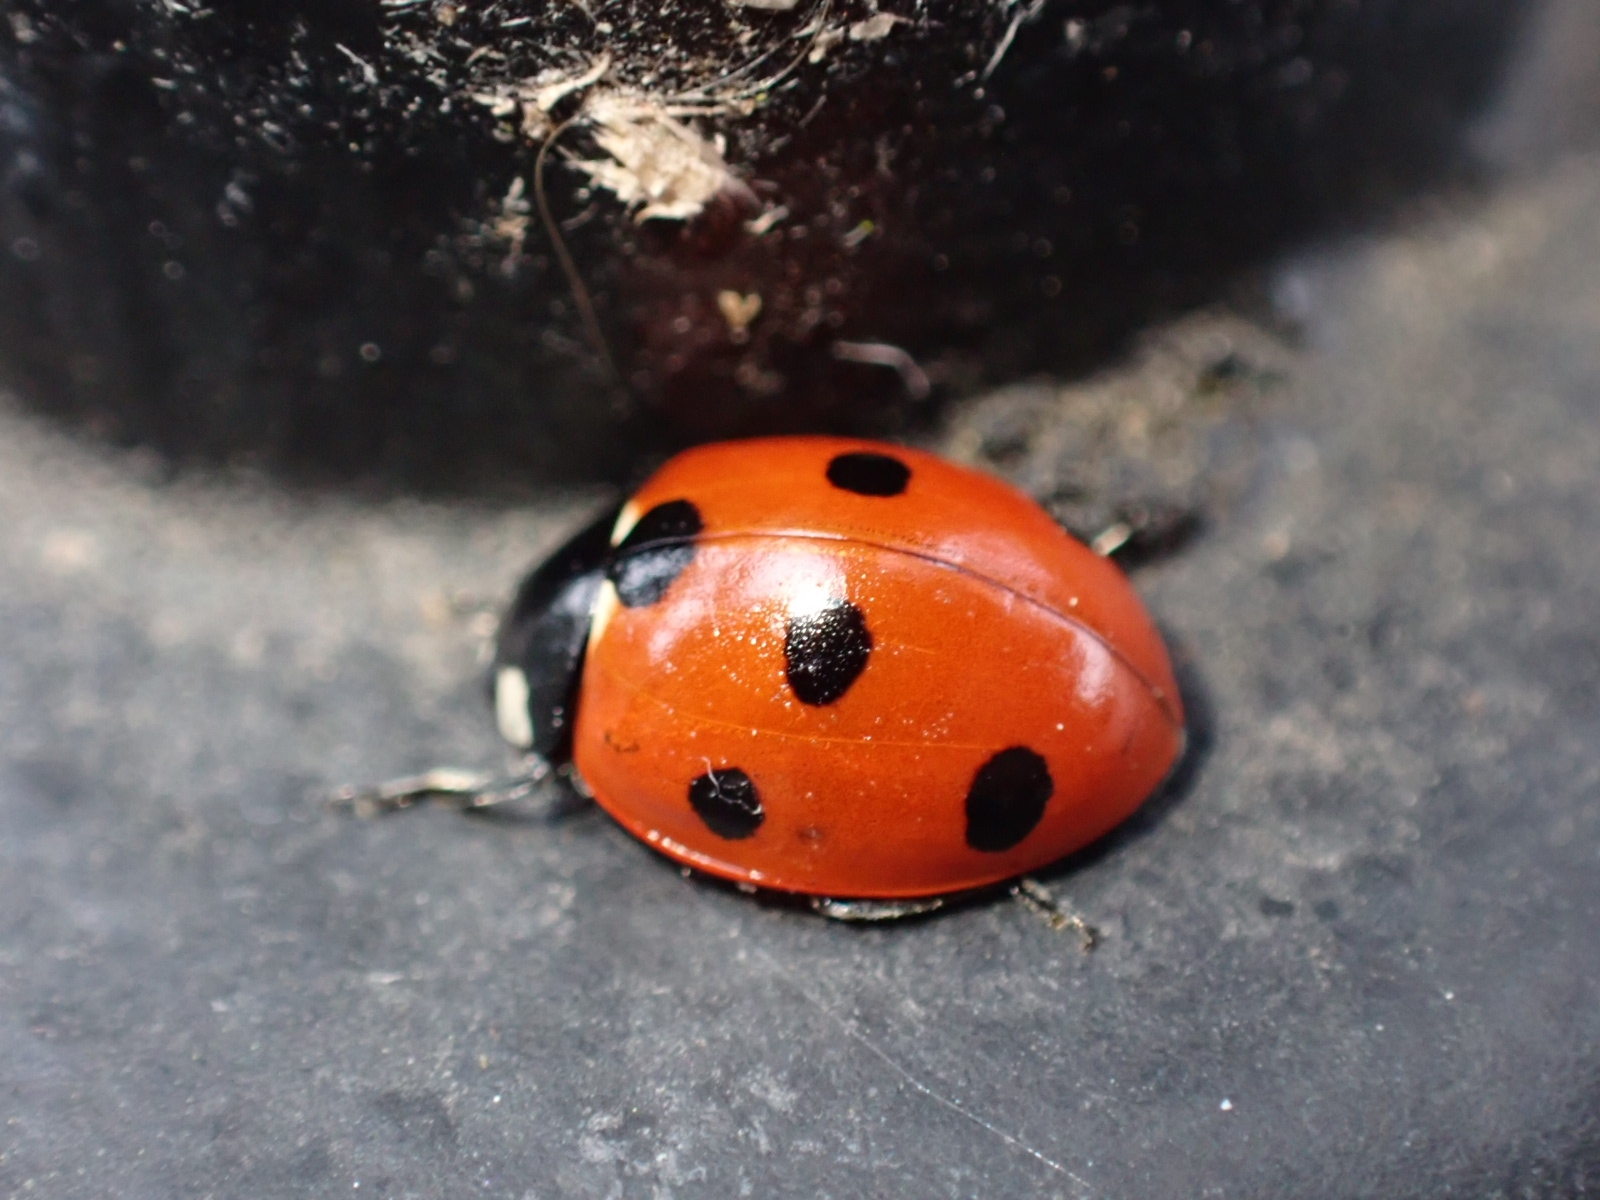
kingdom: Animalia
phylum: Arthropoda
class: Insecta
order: Coleoptera
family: Coccinellidae
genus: Coccinella
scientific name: Coccinella septempunctata
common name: Sevenspotted lady beetle
